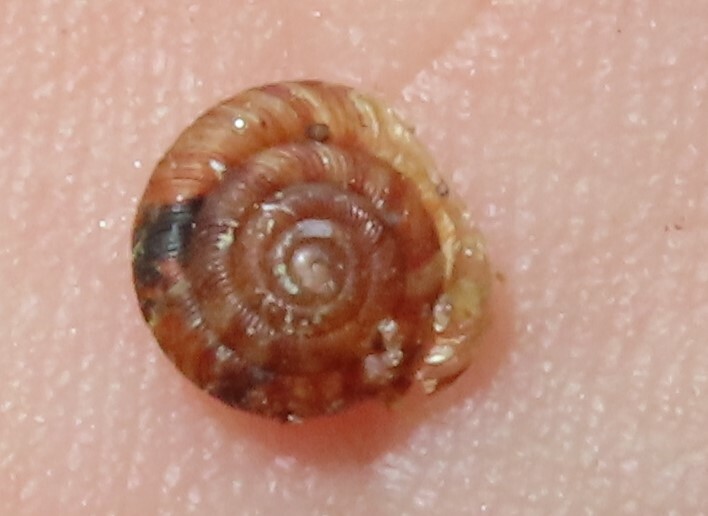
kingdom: Animalia
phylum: Mollusca
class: Gastropoda
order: Stylommatophora
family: Discidae
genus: Discus
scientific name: Discus rotundatus
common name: Rounded snail
